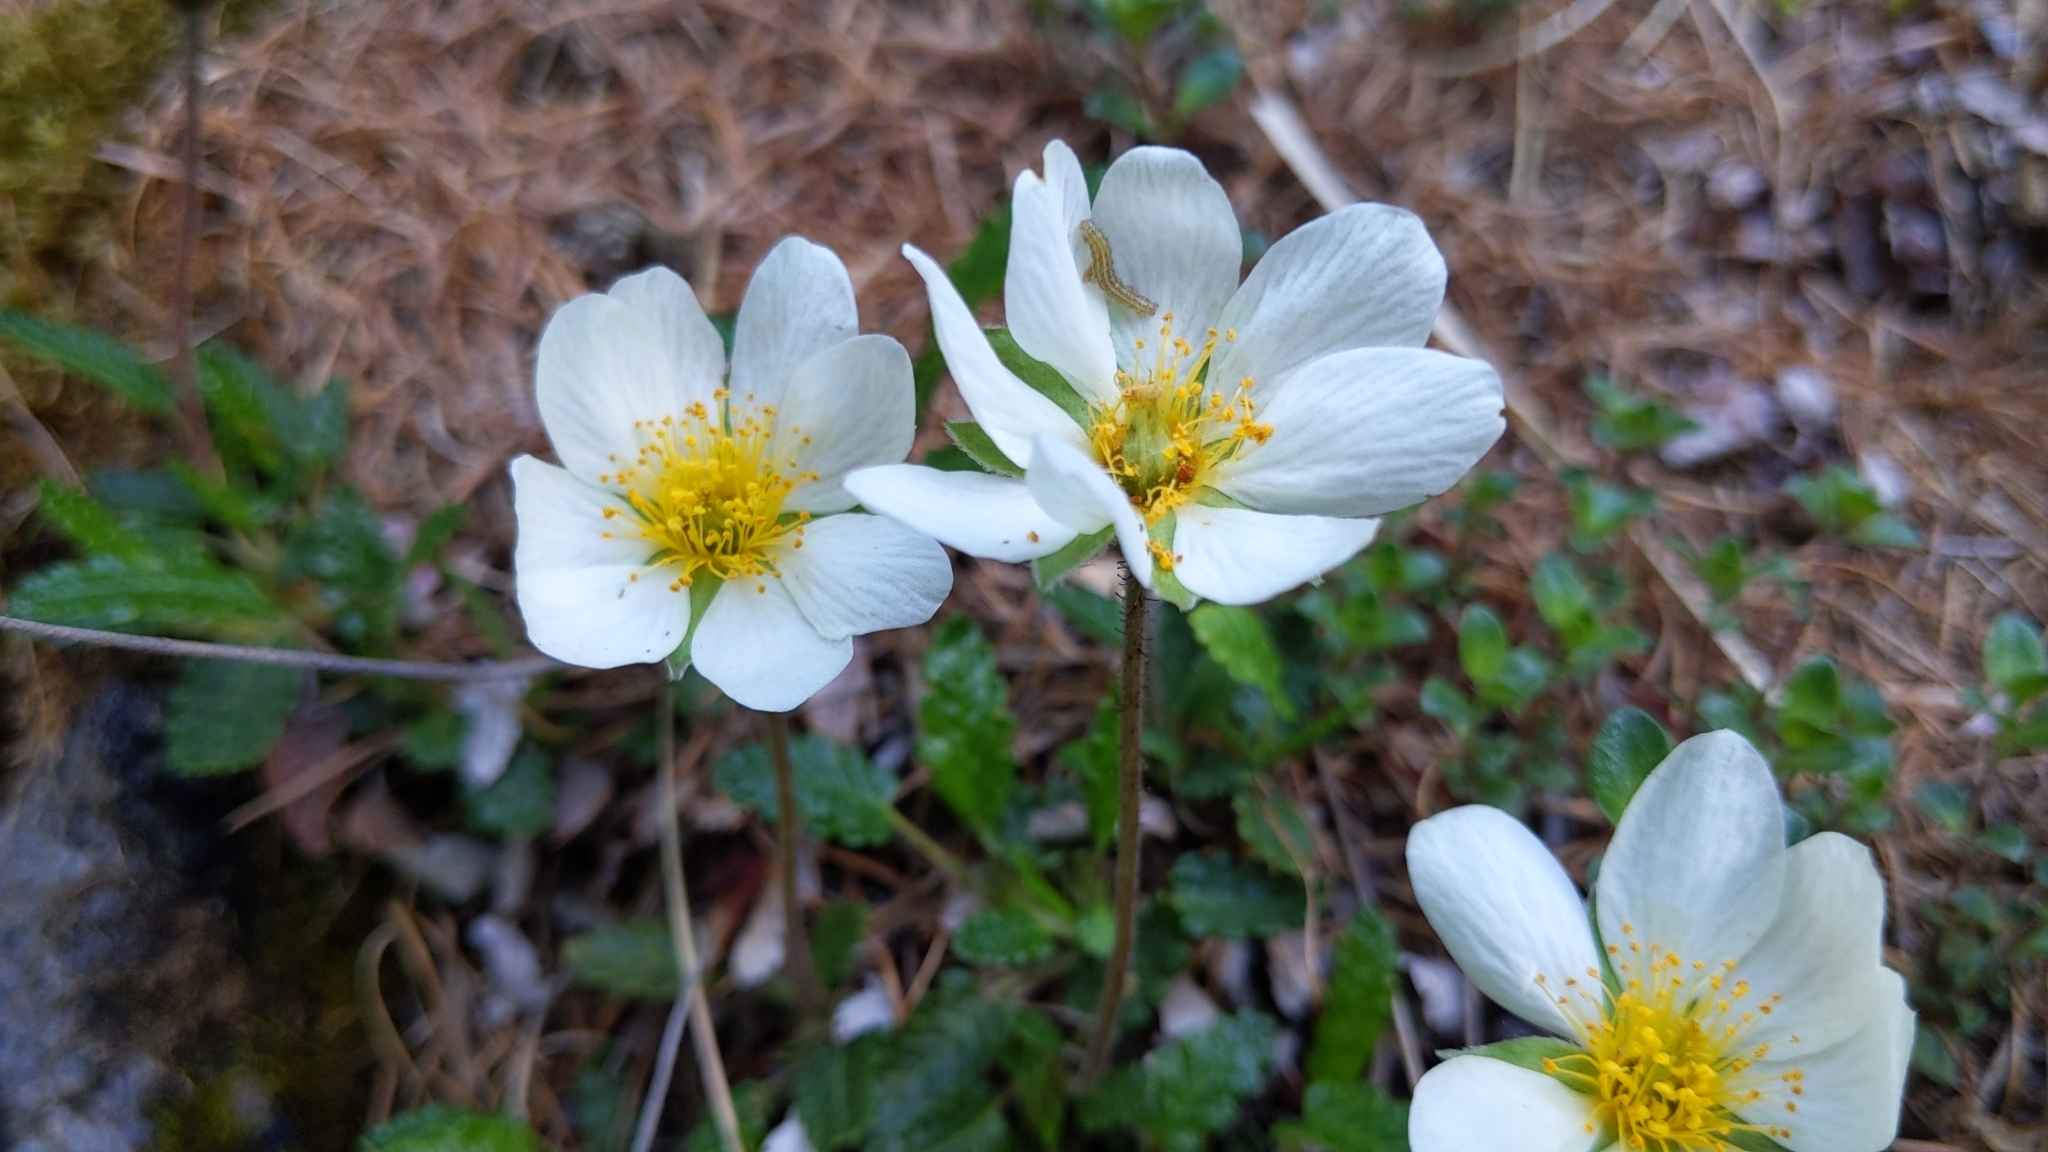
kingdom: Plantae
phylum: Tracheophyta
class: Magnoliopsida
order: Rosales
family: Rosaceae
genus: Dryas
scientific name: Dryas octopetala
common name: Eight-petal mountain-avens
